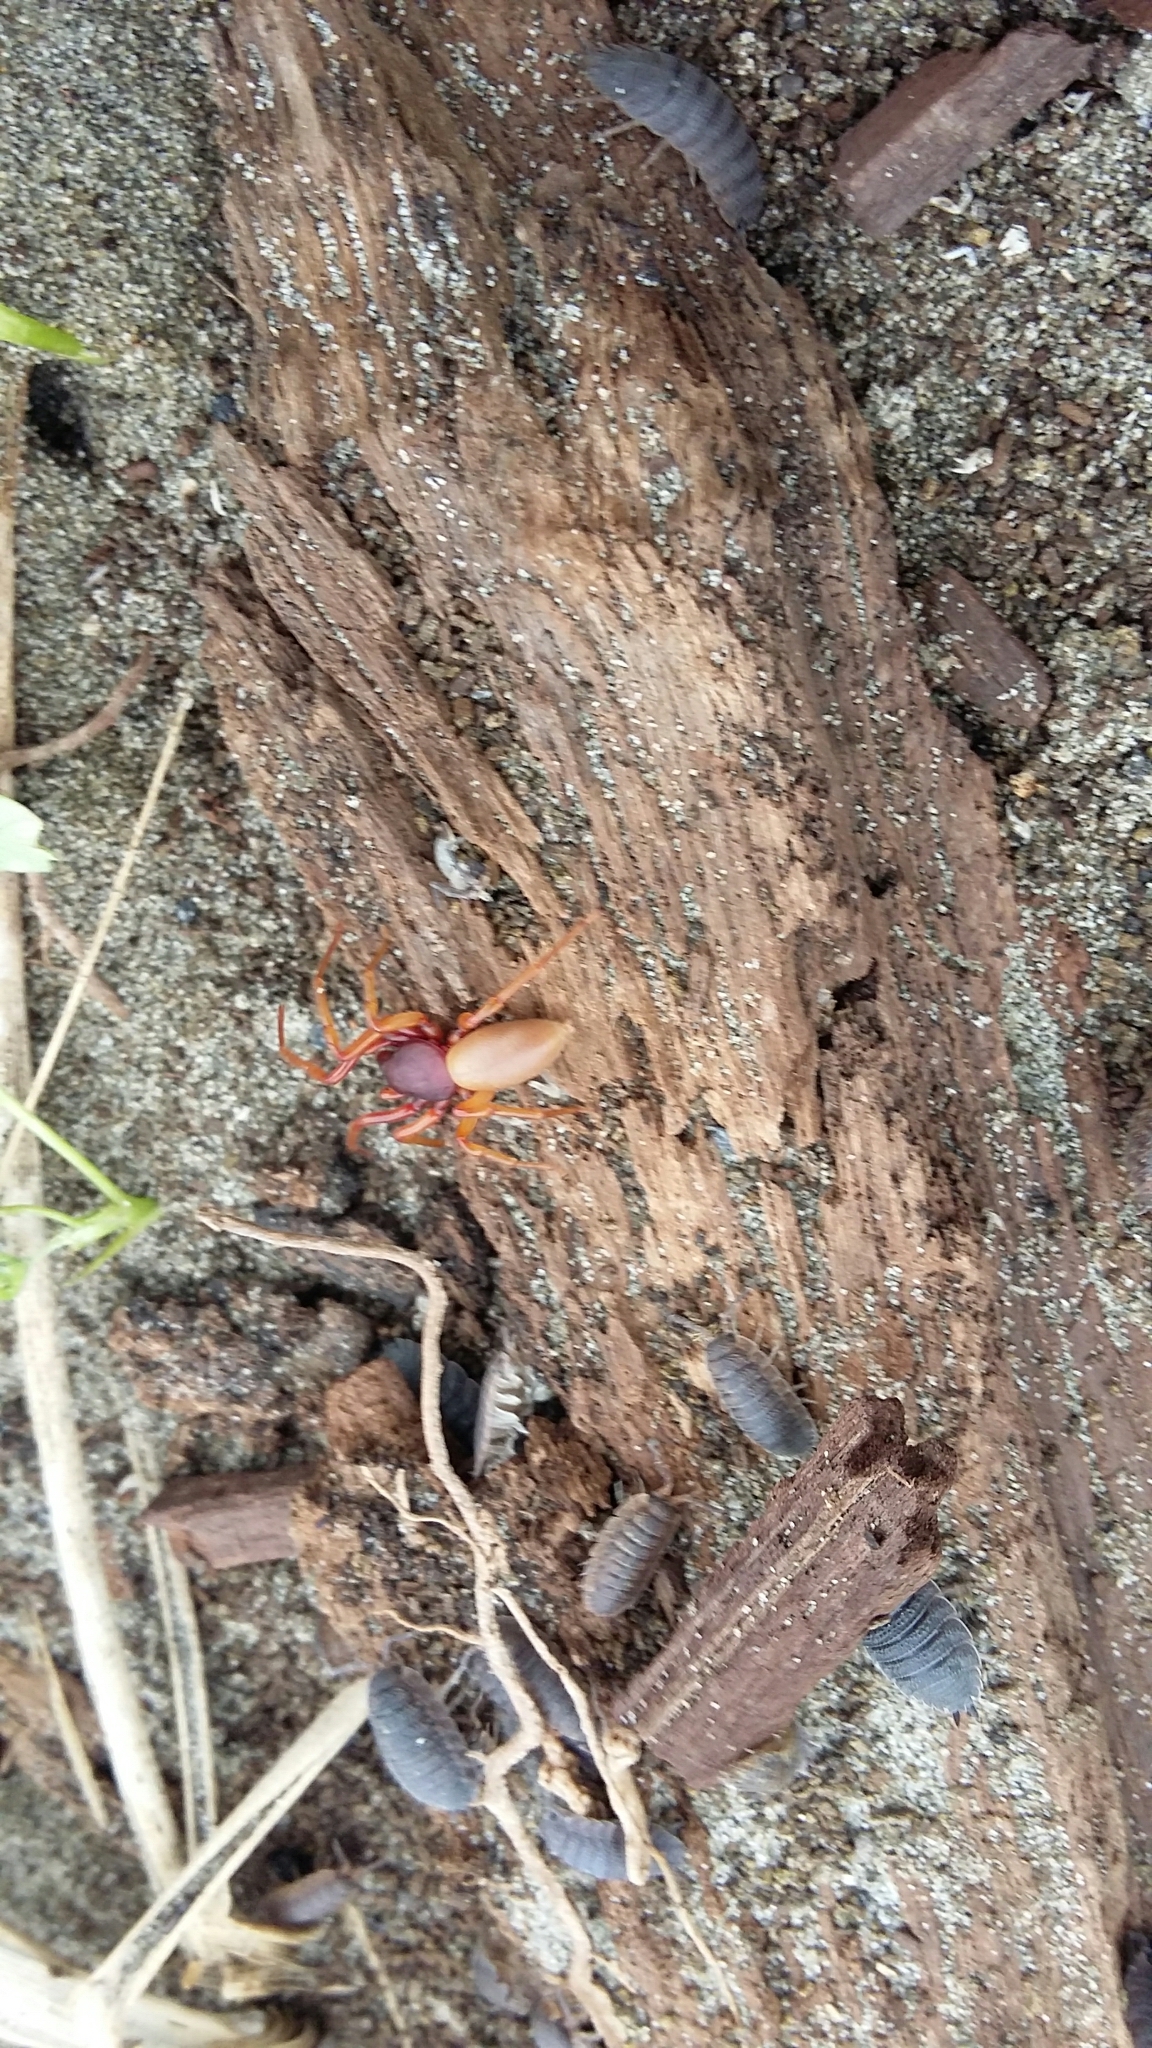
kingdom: Animalia
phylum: Arthropoda
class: Arachnida
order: Araneae
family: Dysderidae
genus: Dysdera
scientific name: Dysdera crocata
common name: Woodlouse spider
